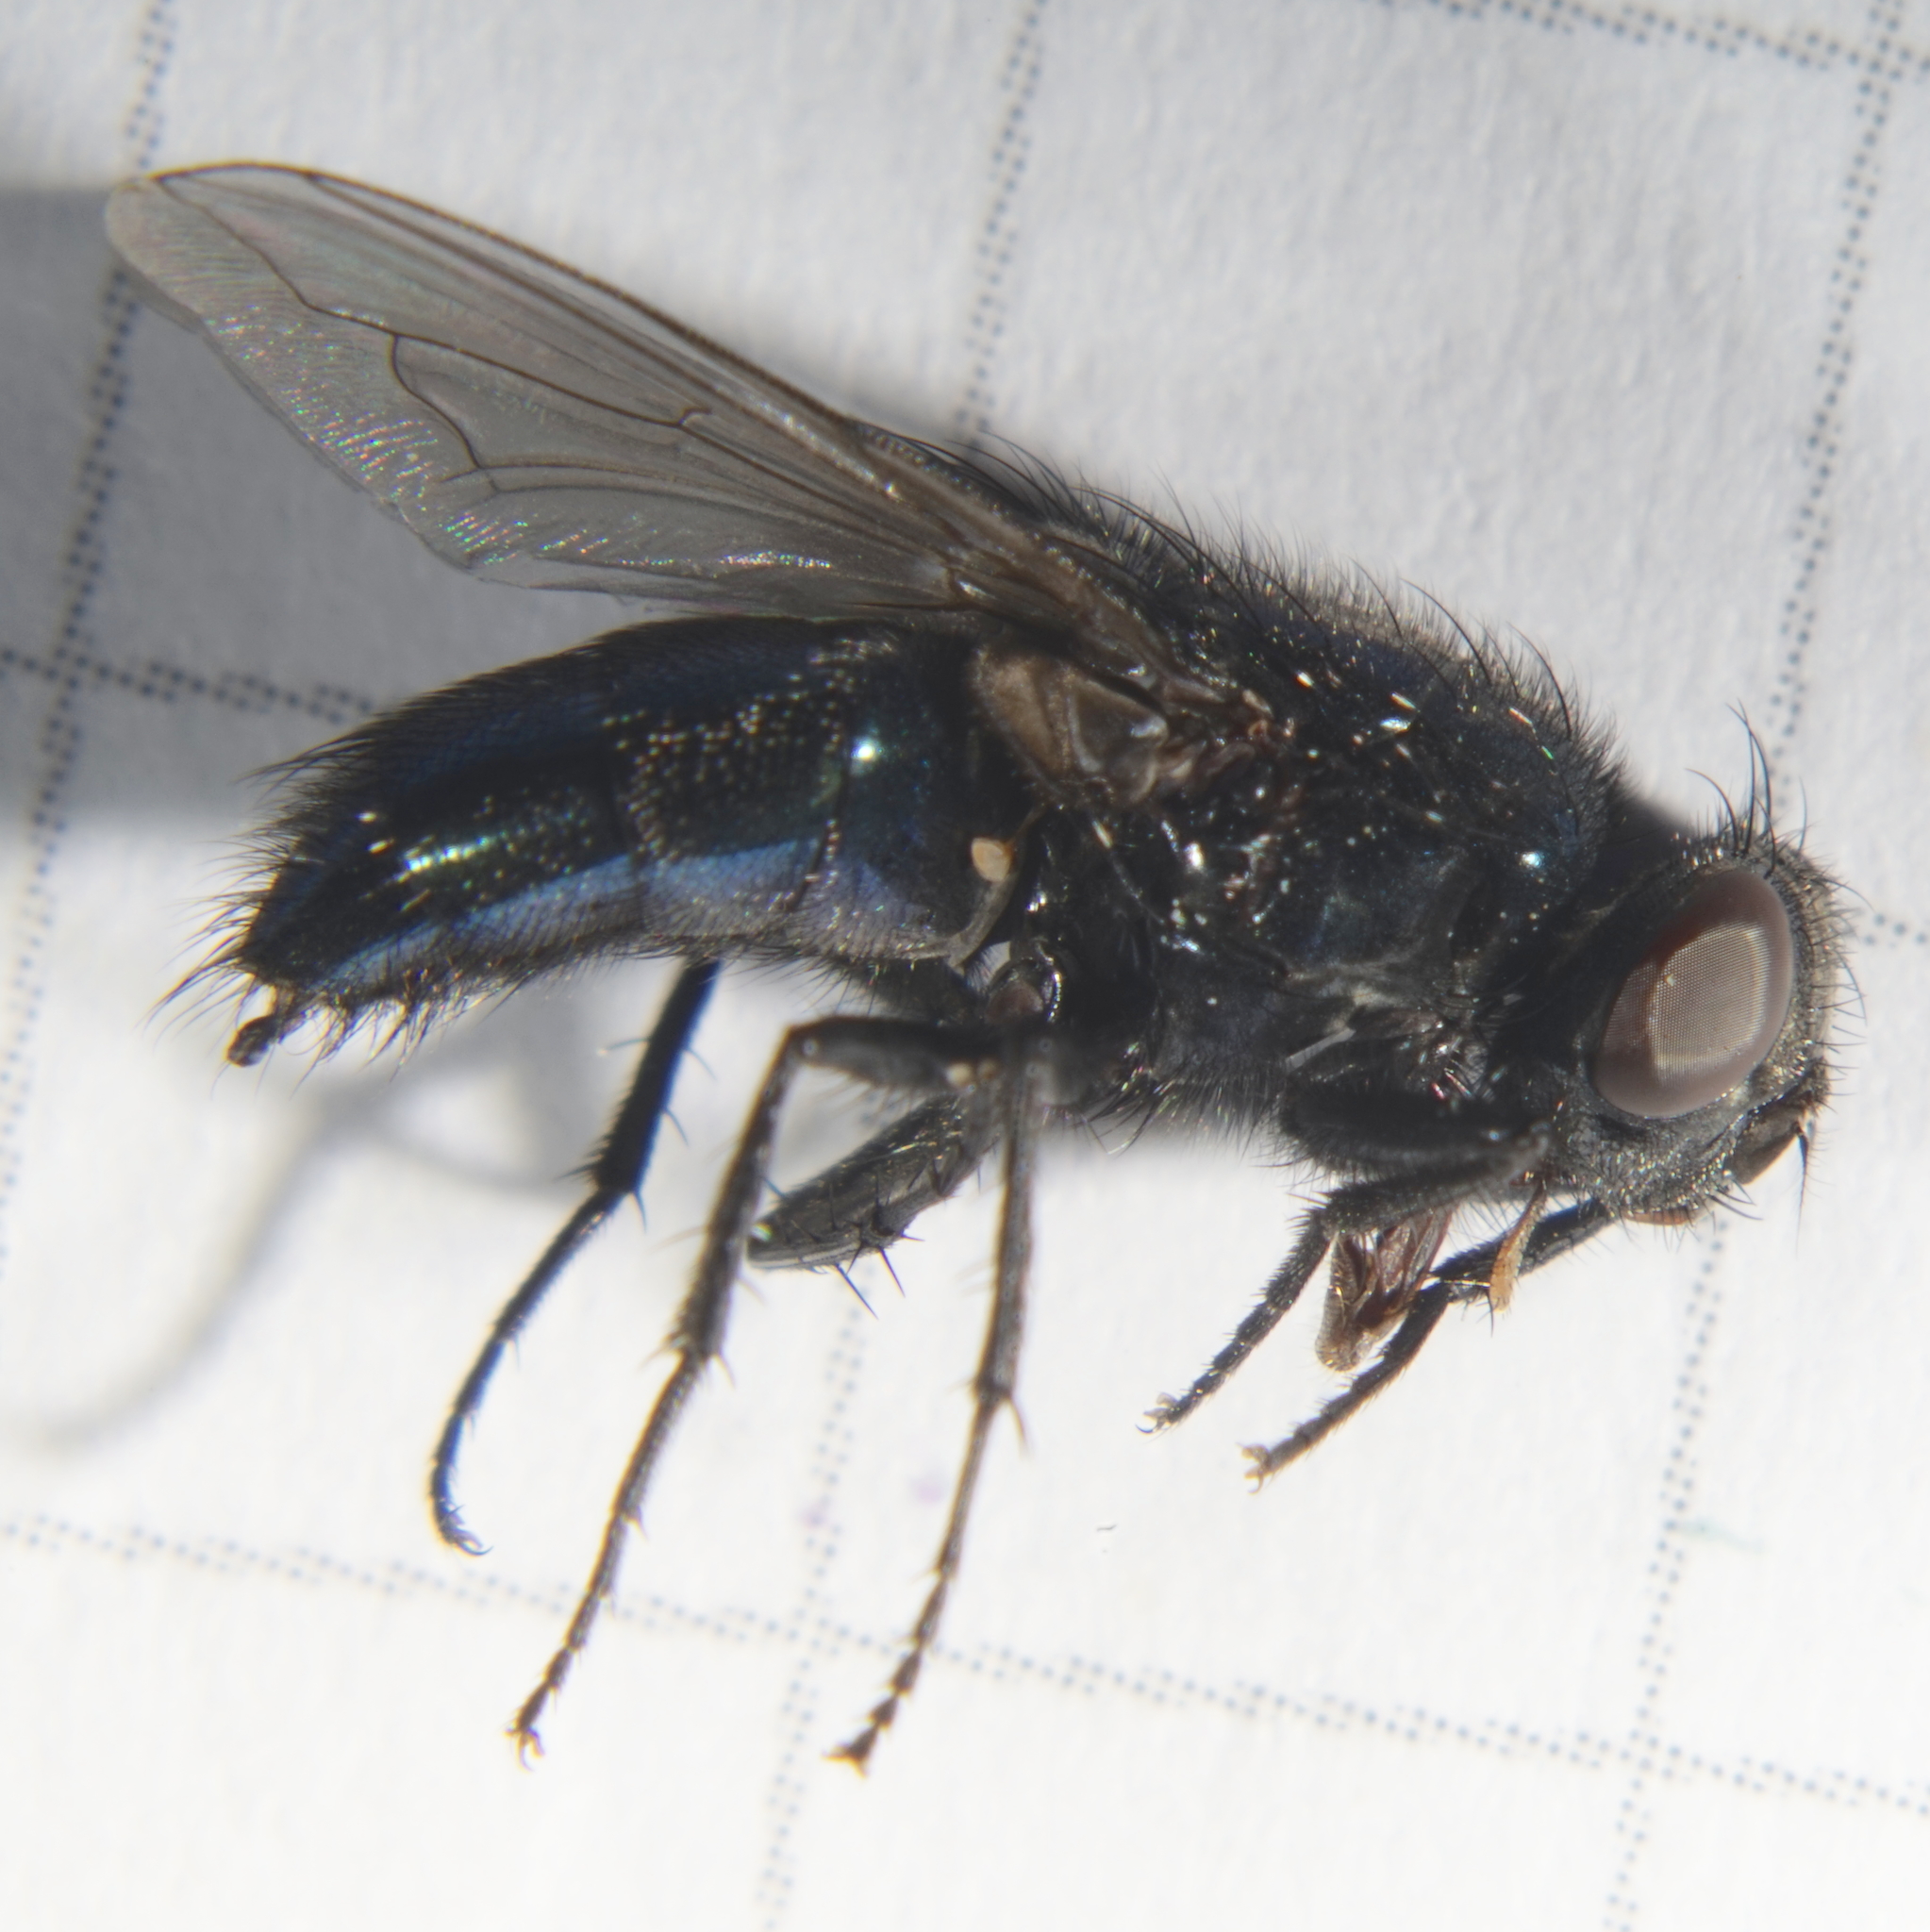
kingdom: Animalia
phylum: Arthropoda
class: Insecta
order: Diptera
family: Calliphoridae
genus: Protophormia
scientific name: Protophormia terraenovae
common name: Blackbottle
